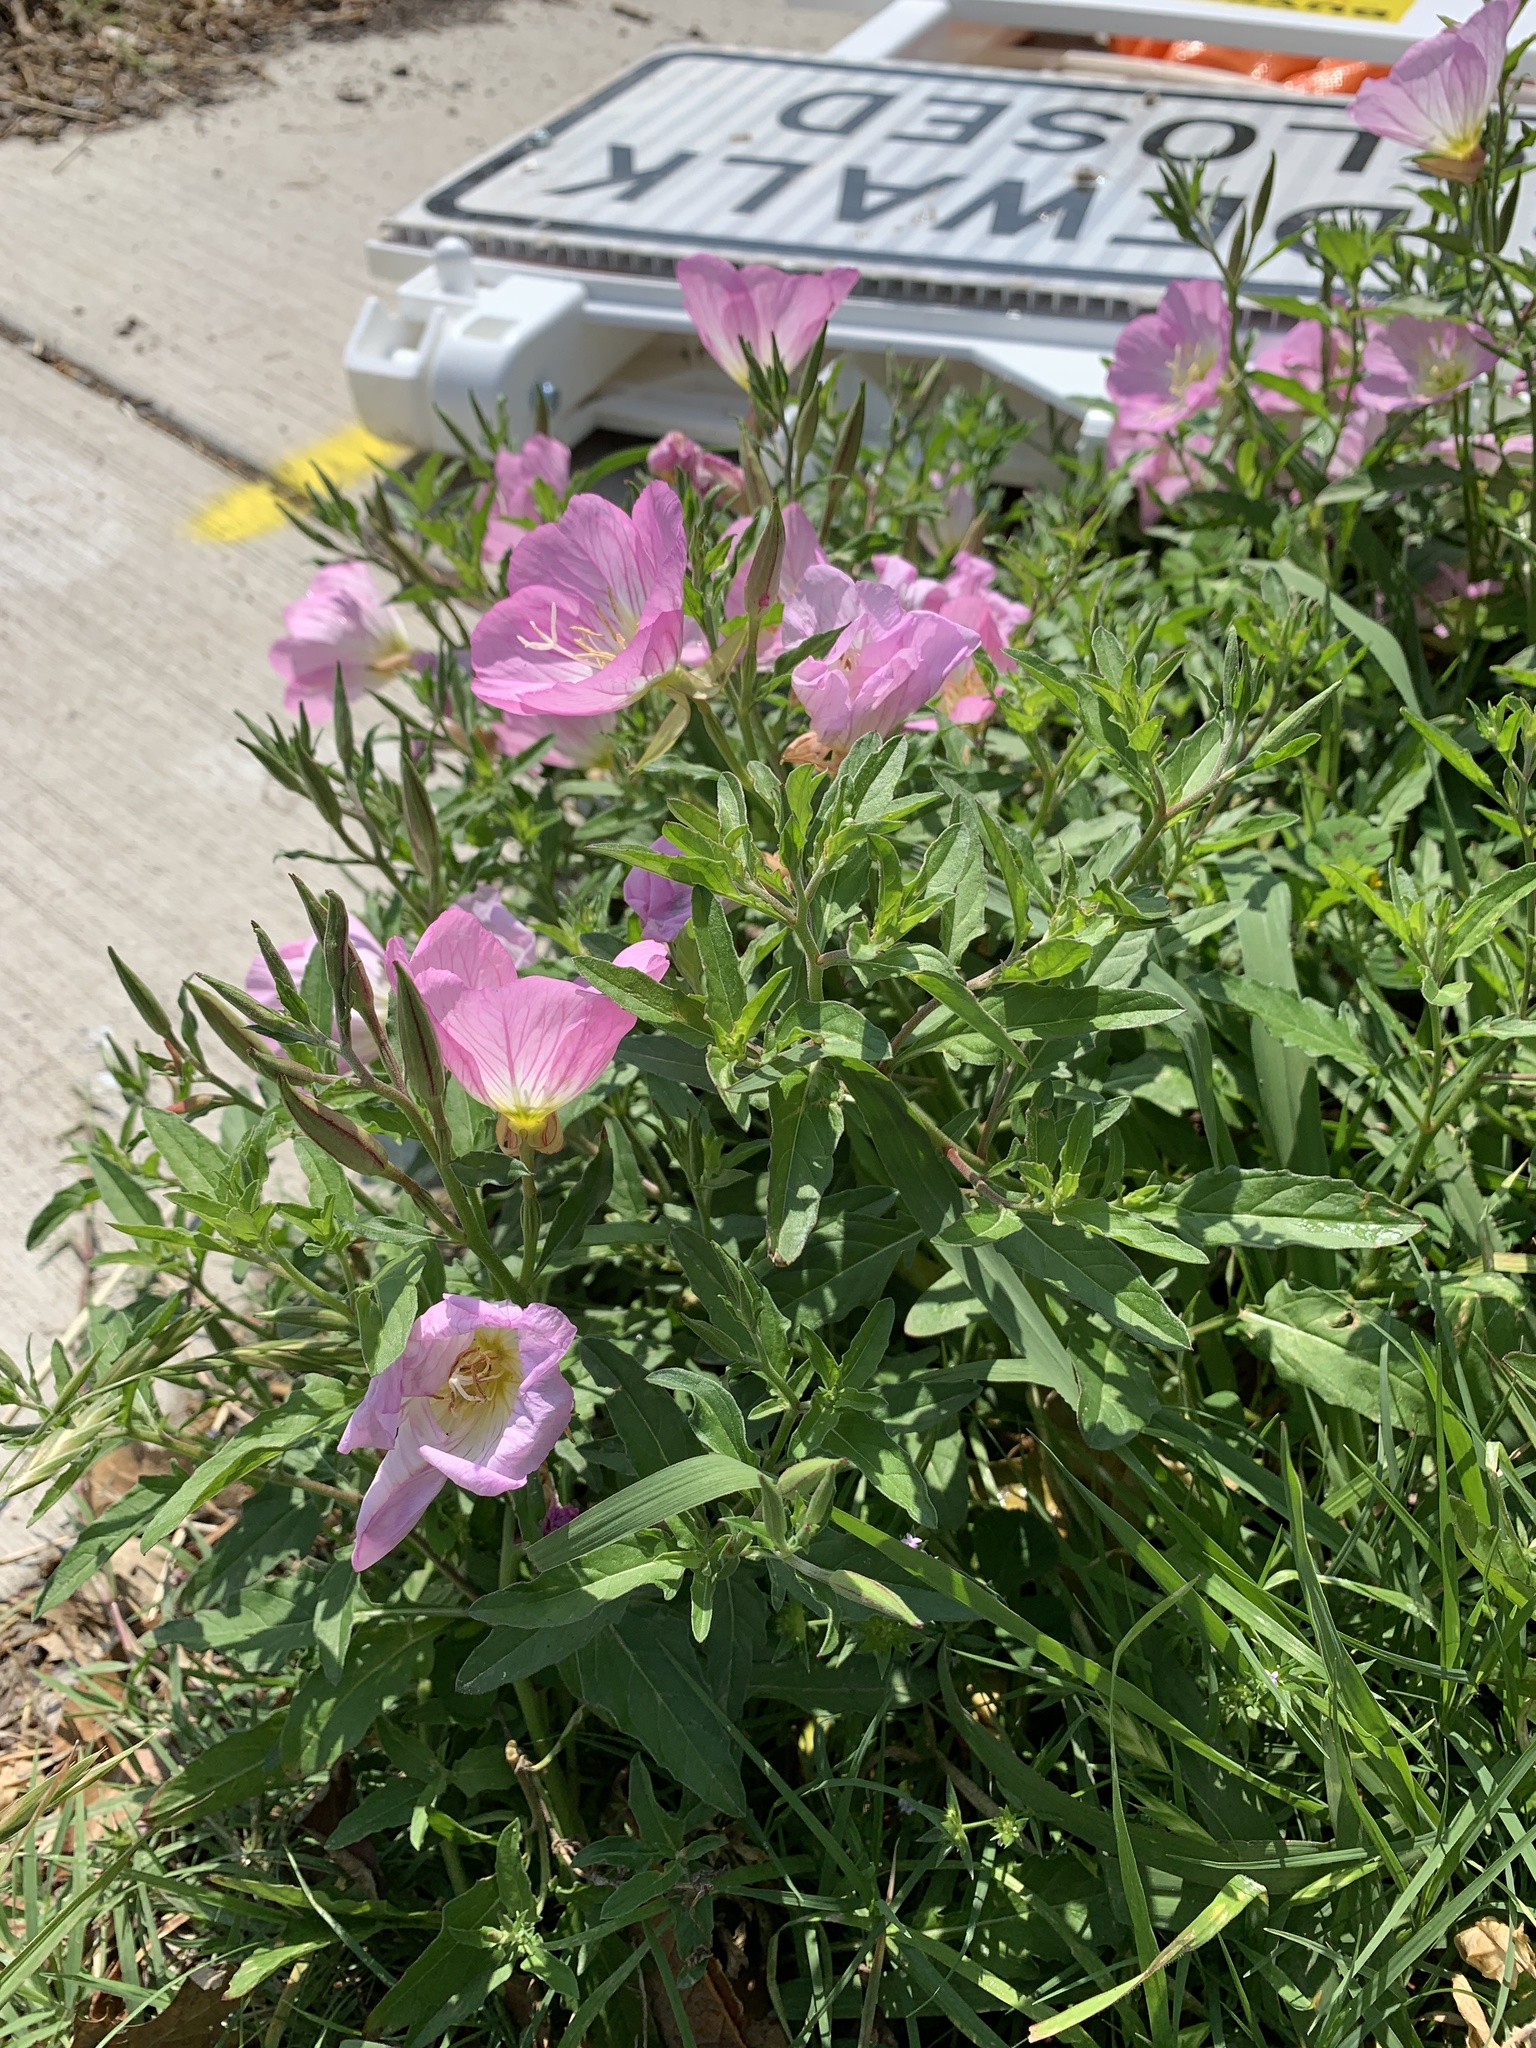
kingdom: Plantae
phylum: Tracheophyta
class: Magnoliopsida
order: Myrtales
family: Onagraceae
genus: Oenothera
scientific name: Oenothera speciosa
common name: White evening-primrose
